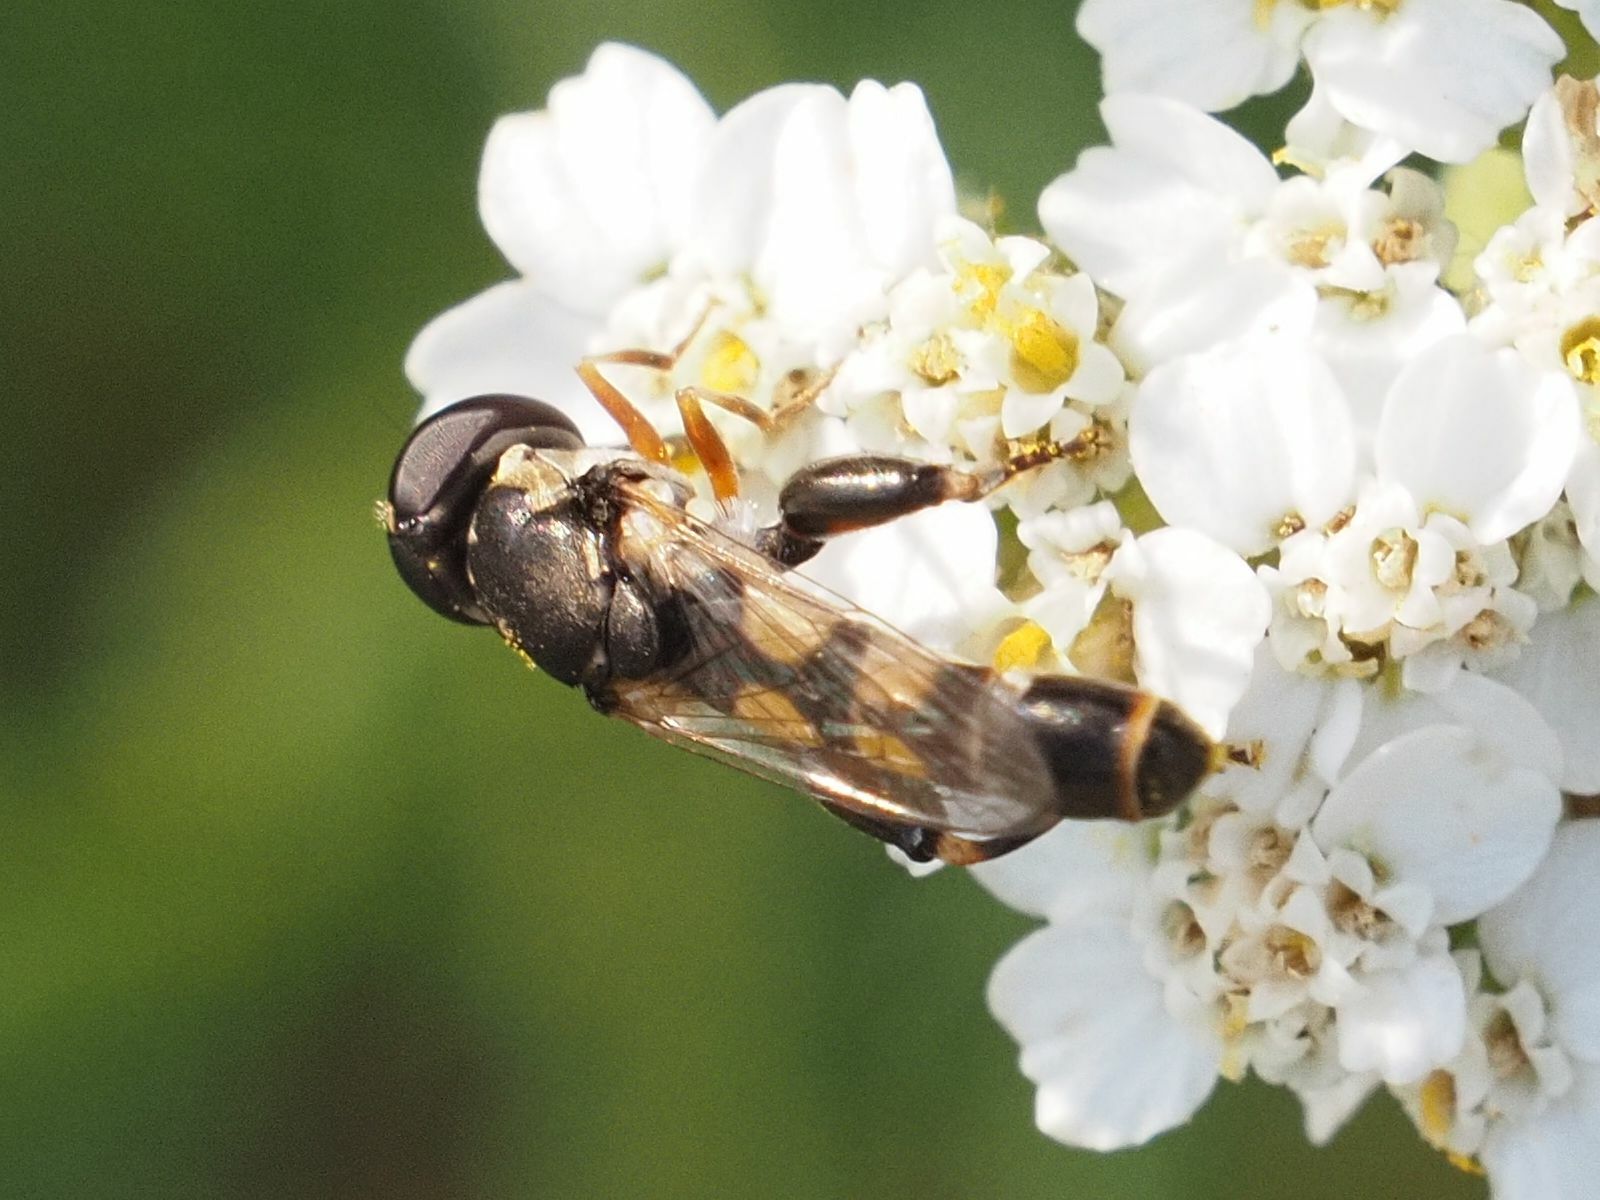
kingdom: Animalia
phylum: Arthropoda
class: Insecta
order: Diptera
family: Syrphidae
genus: Syritta
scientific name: Syritta pipiens
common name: Hover fly
